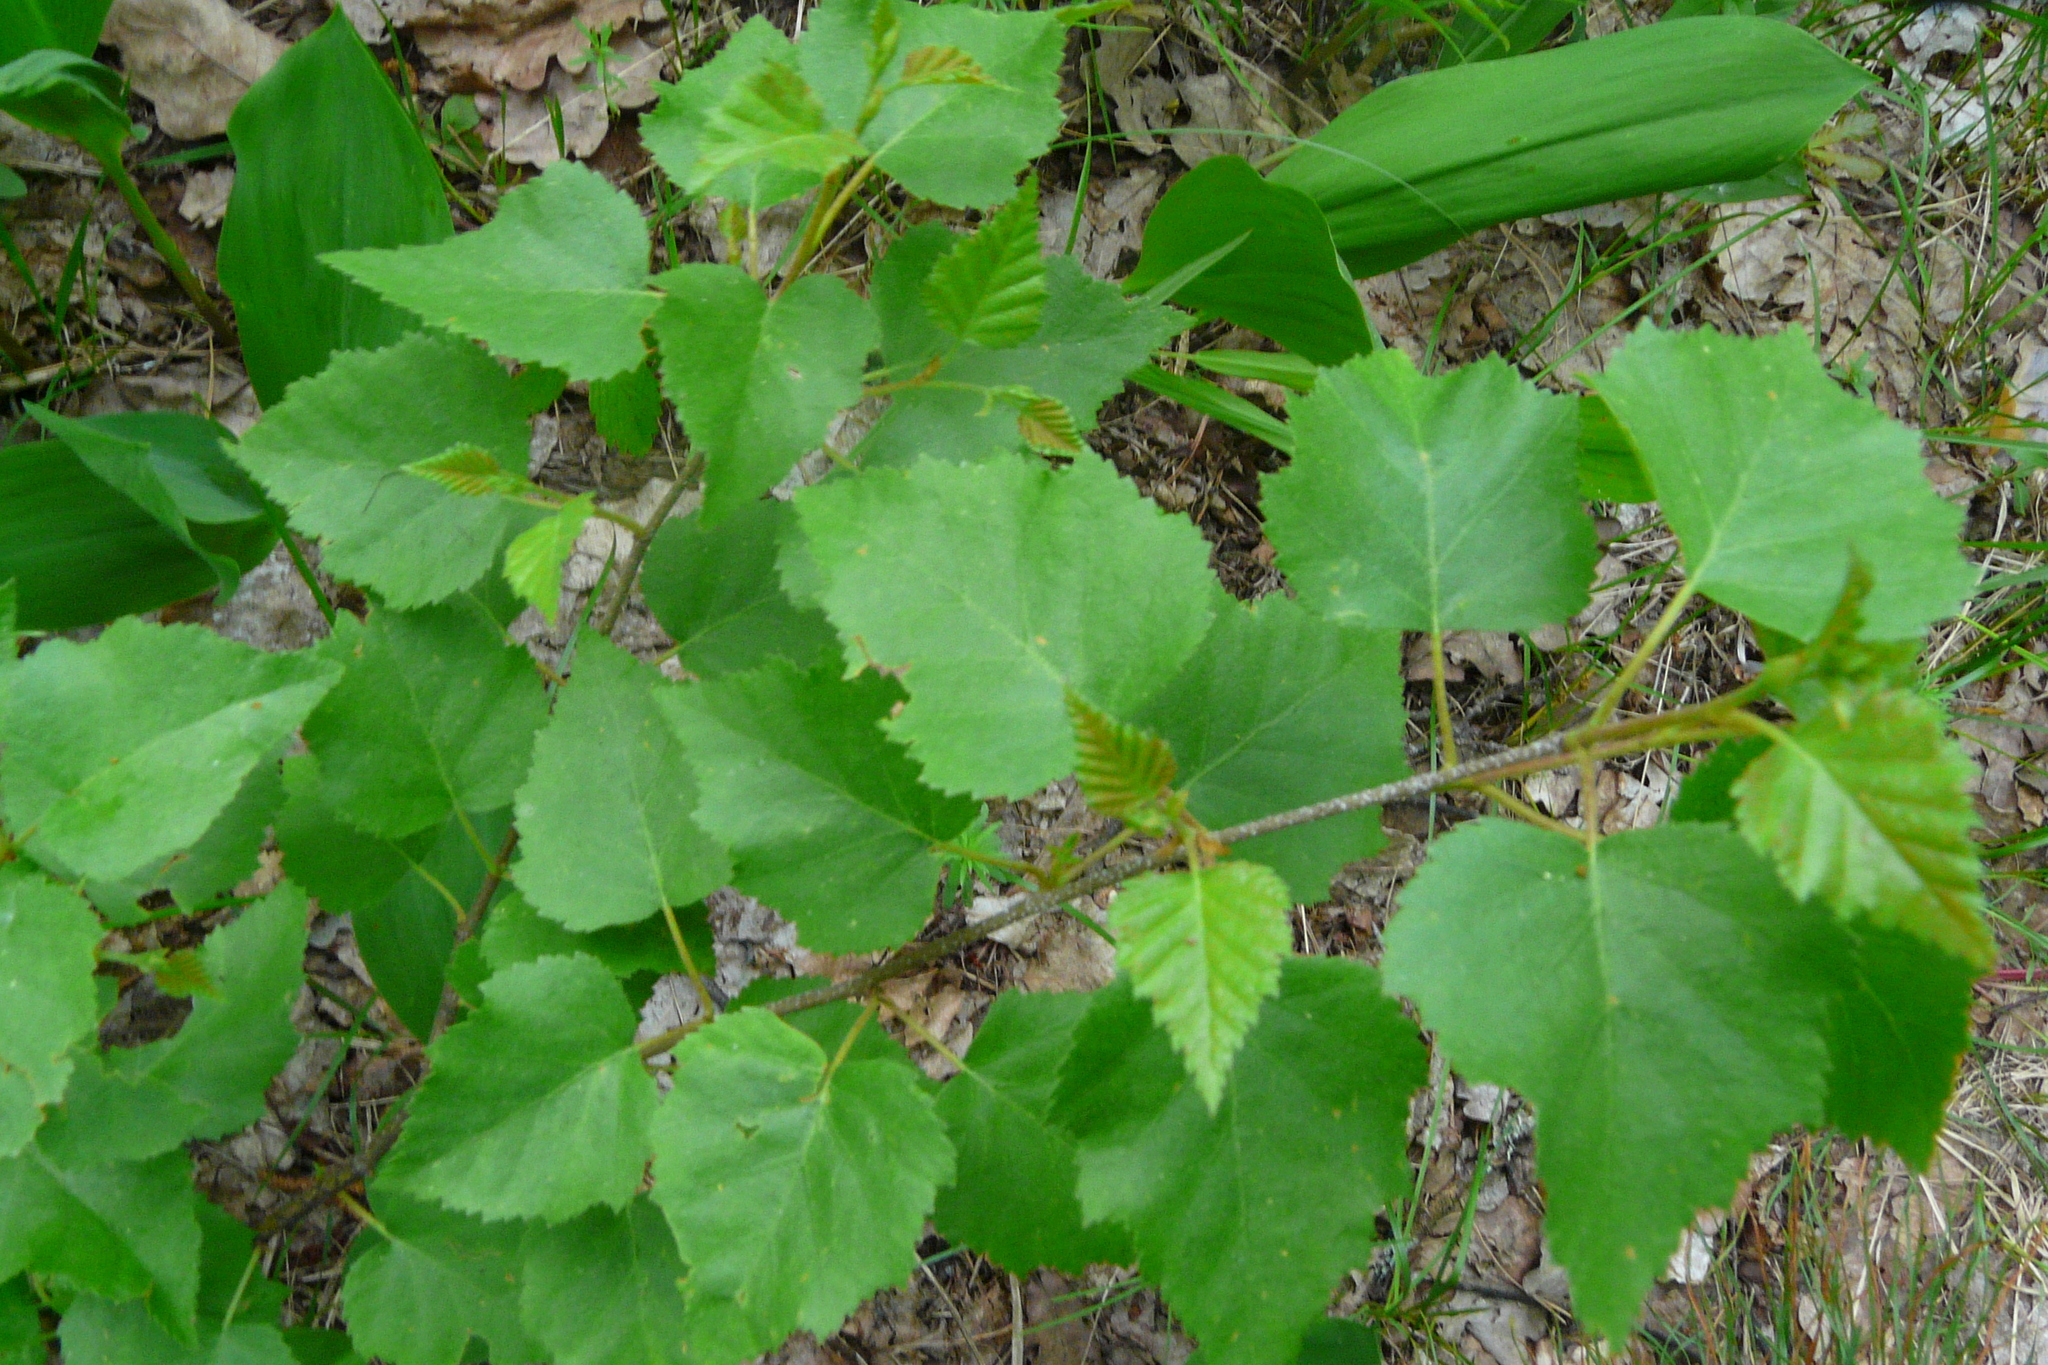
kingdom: Plantae
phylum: Tracheophyta
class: Magnoliopsida
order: Fagales
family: Betulaceae
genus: Betula
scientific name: Betula pendula
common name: Silver birch
